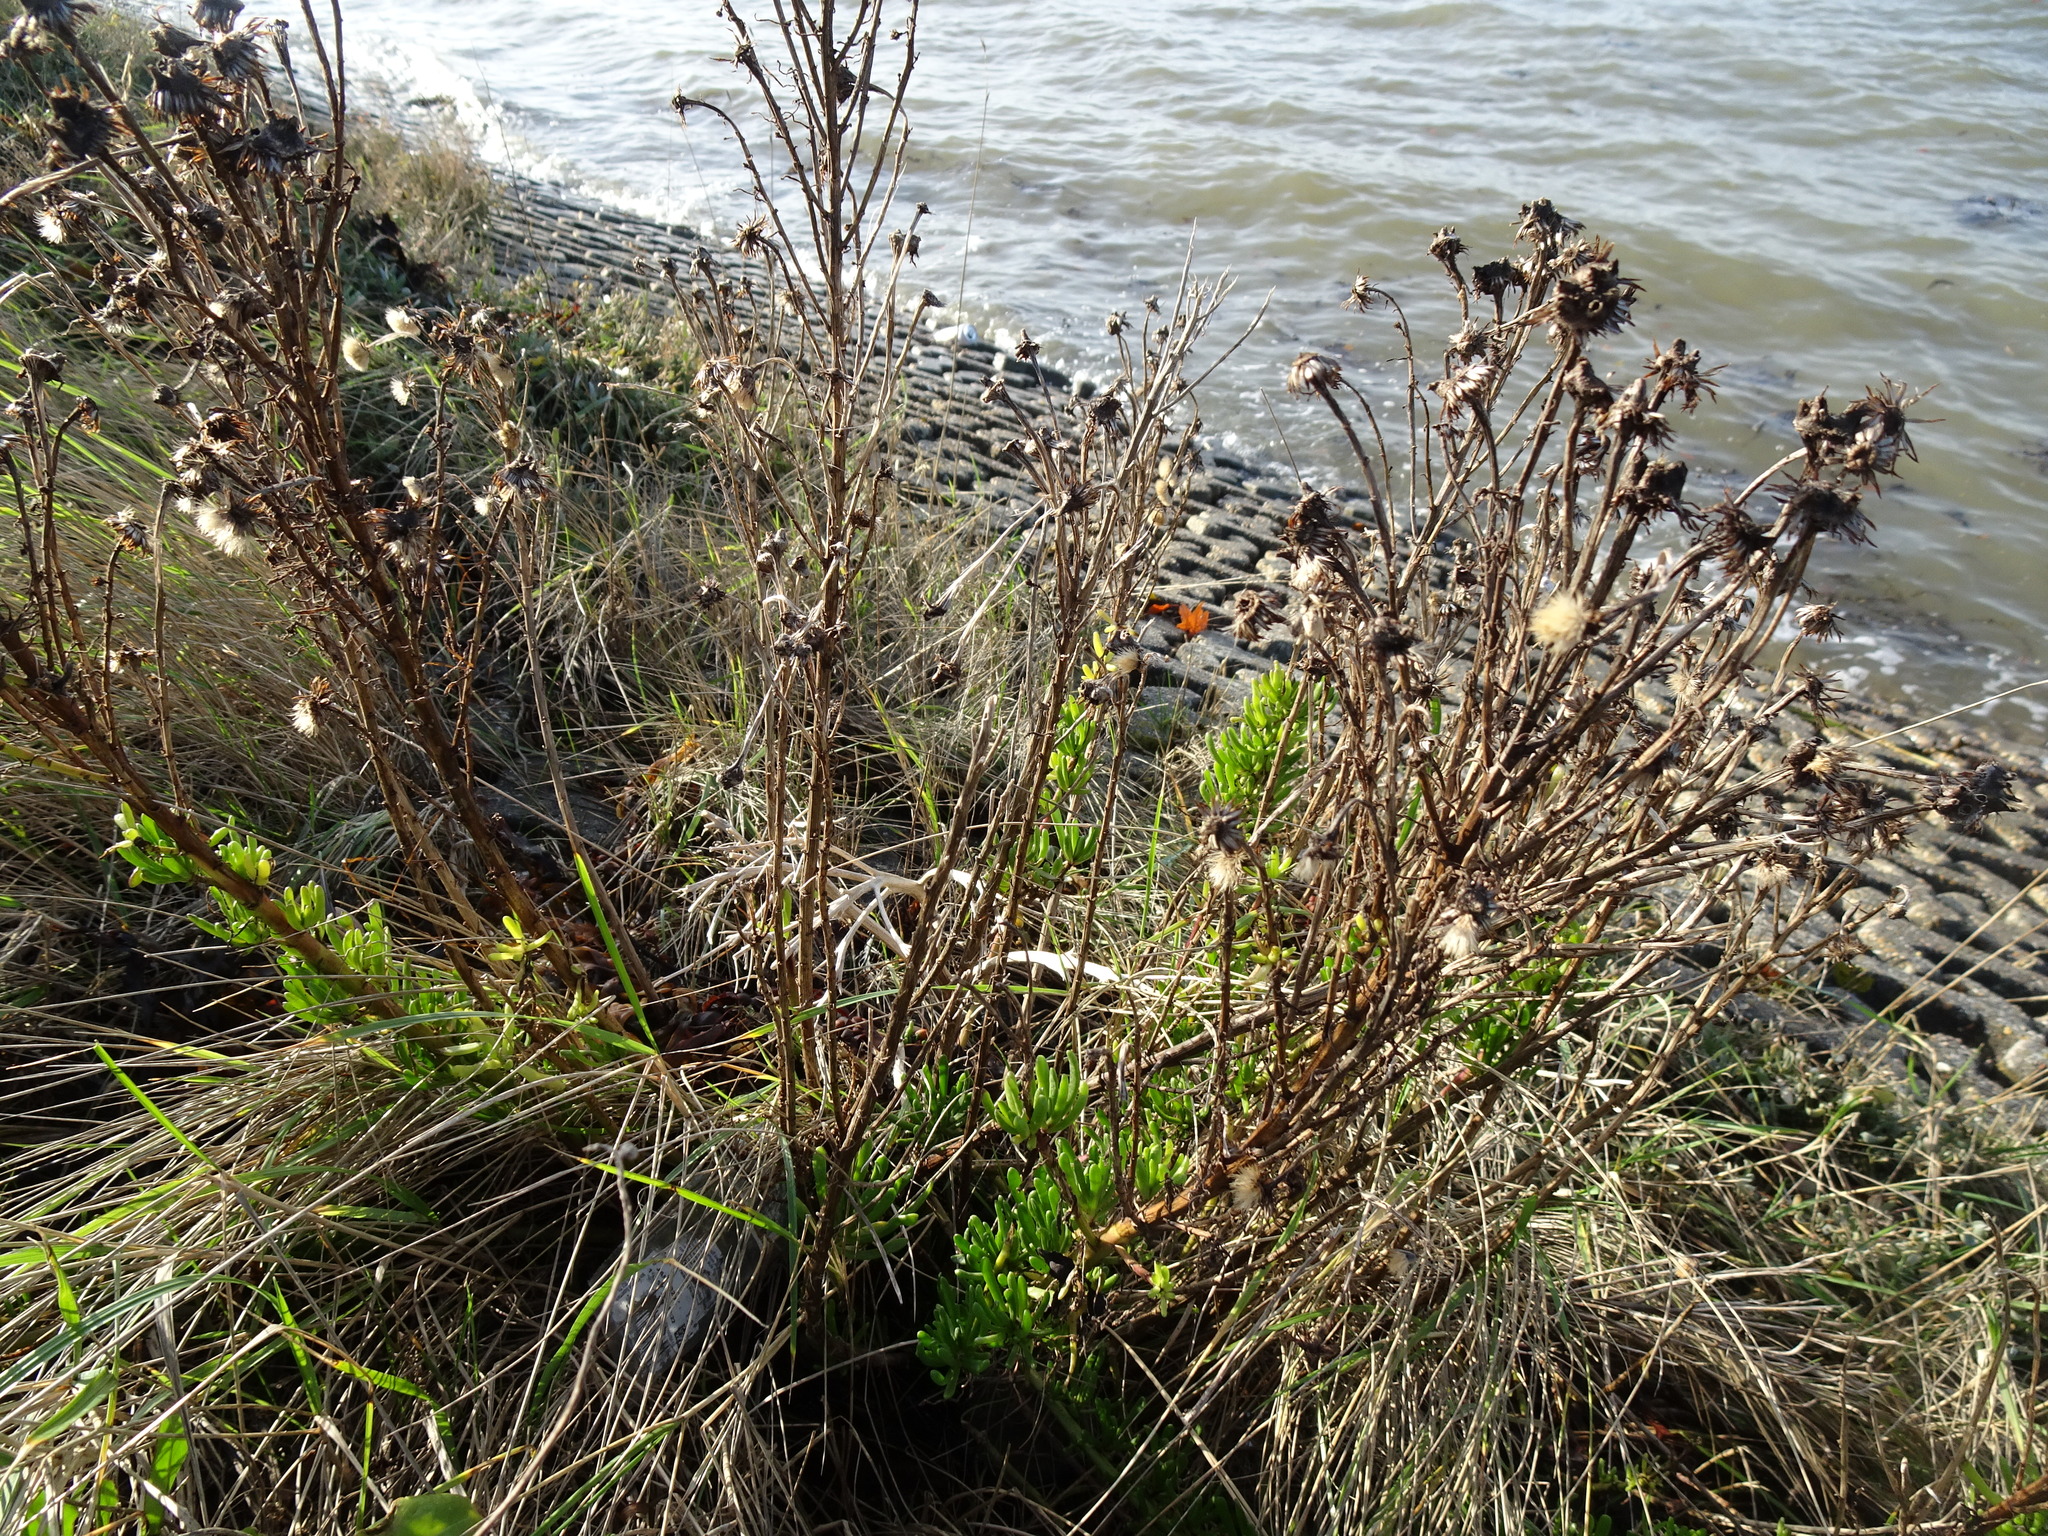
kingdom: Plantae
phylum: Tracheophyta
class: Magnoliopsida
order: Asterales
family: Asteraceae
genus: Limbarda
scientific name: Limbarda crithmoides
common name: Golden samphire
